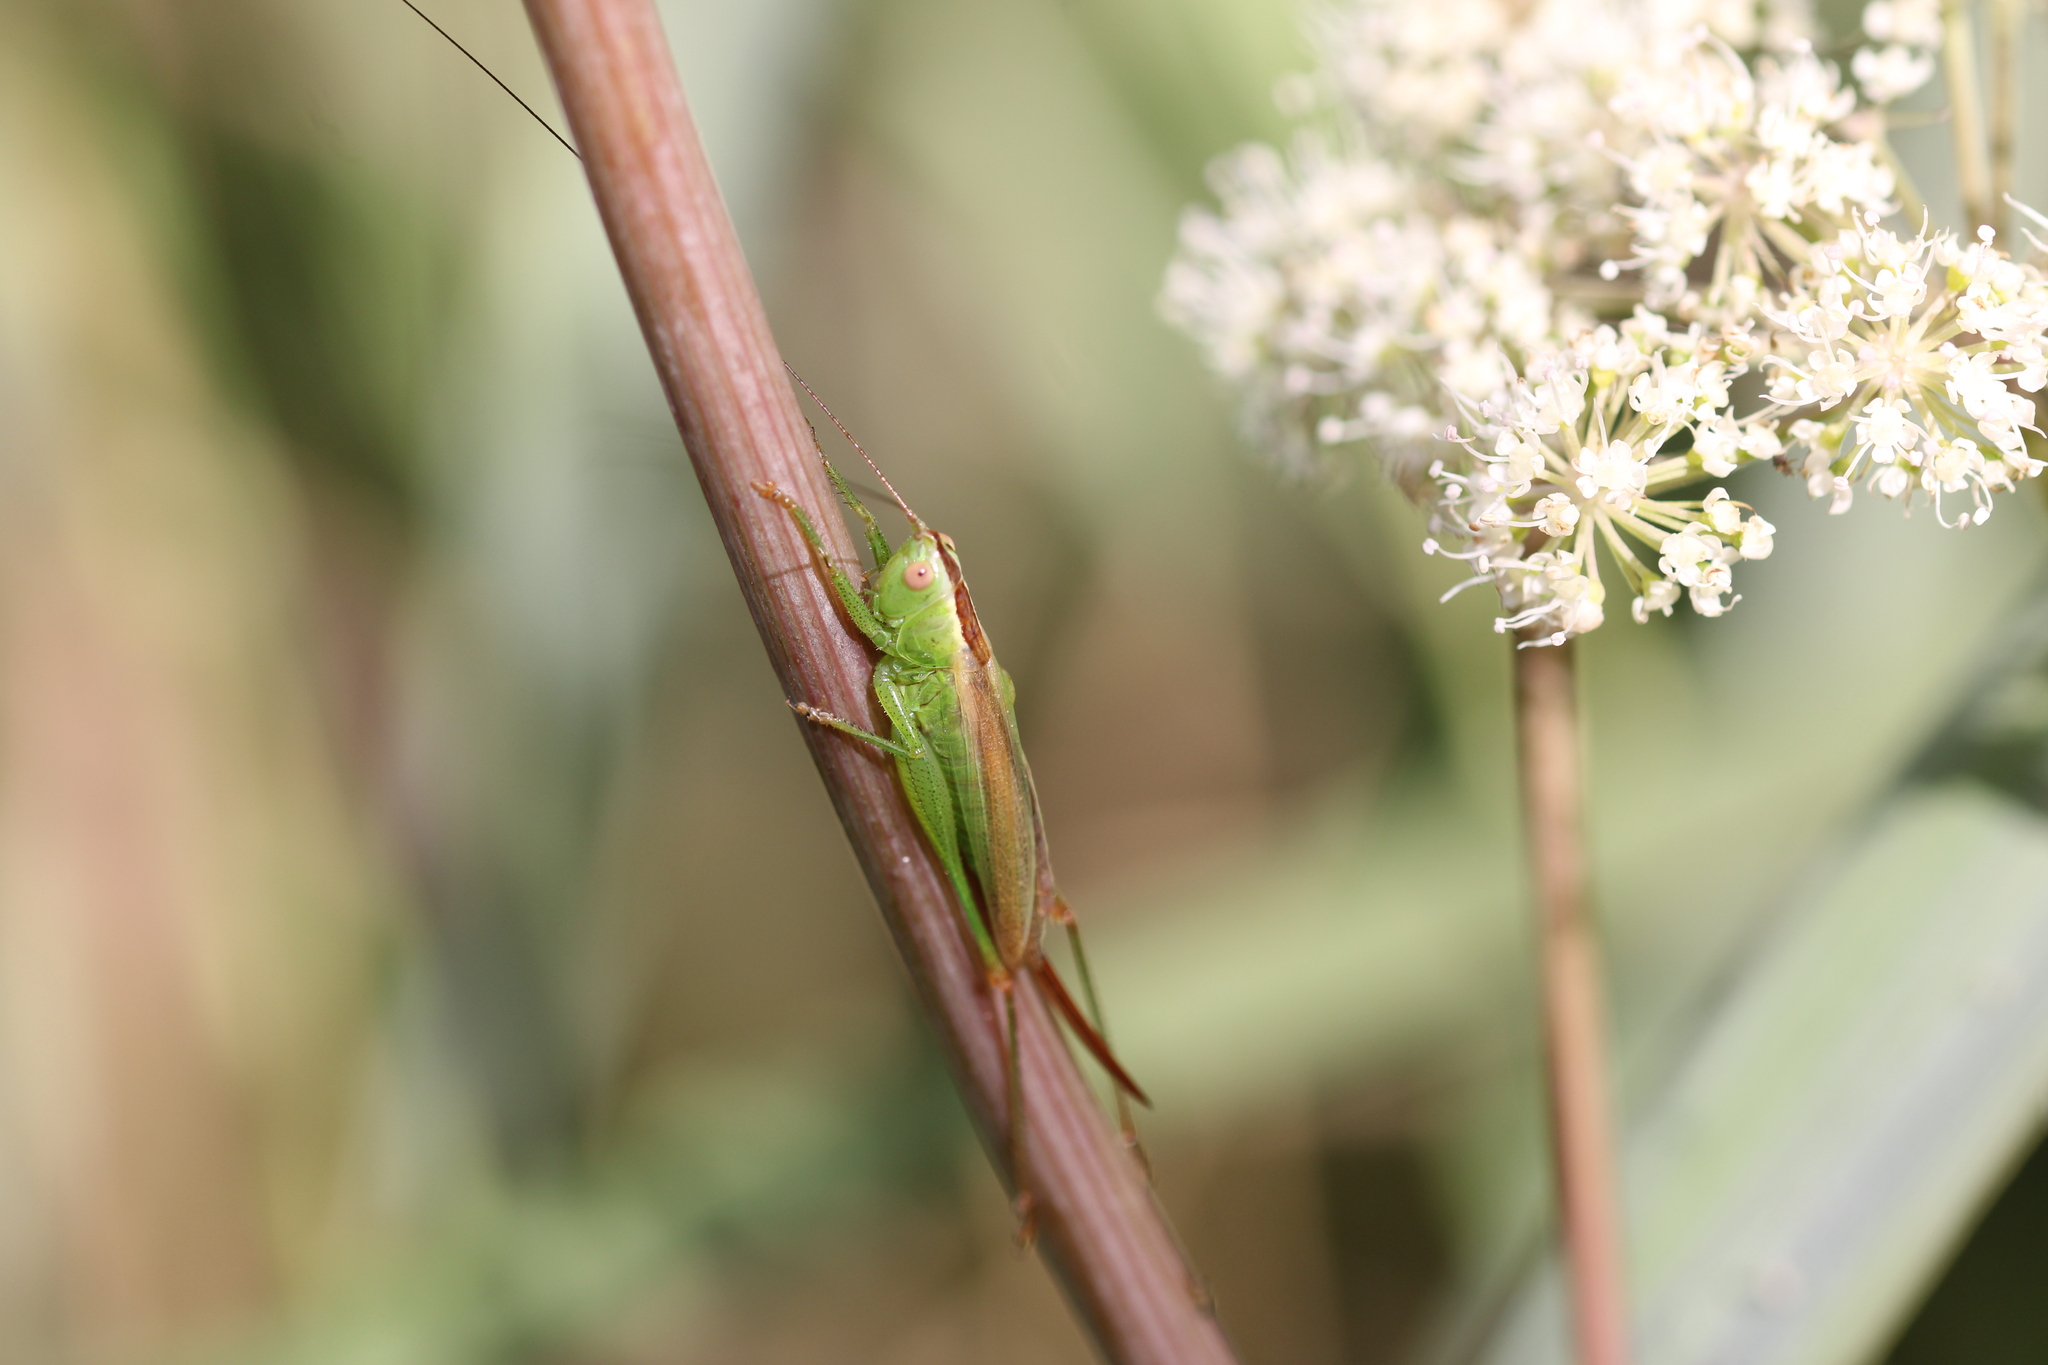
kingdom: Animalia
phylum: Arthropoda
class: Insecta
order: Orthoptera
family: Tettigoniidae
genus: Conocephalus
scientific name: Conocephalus fuscus
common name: Long-winged conehead
